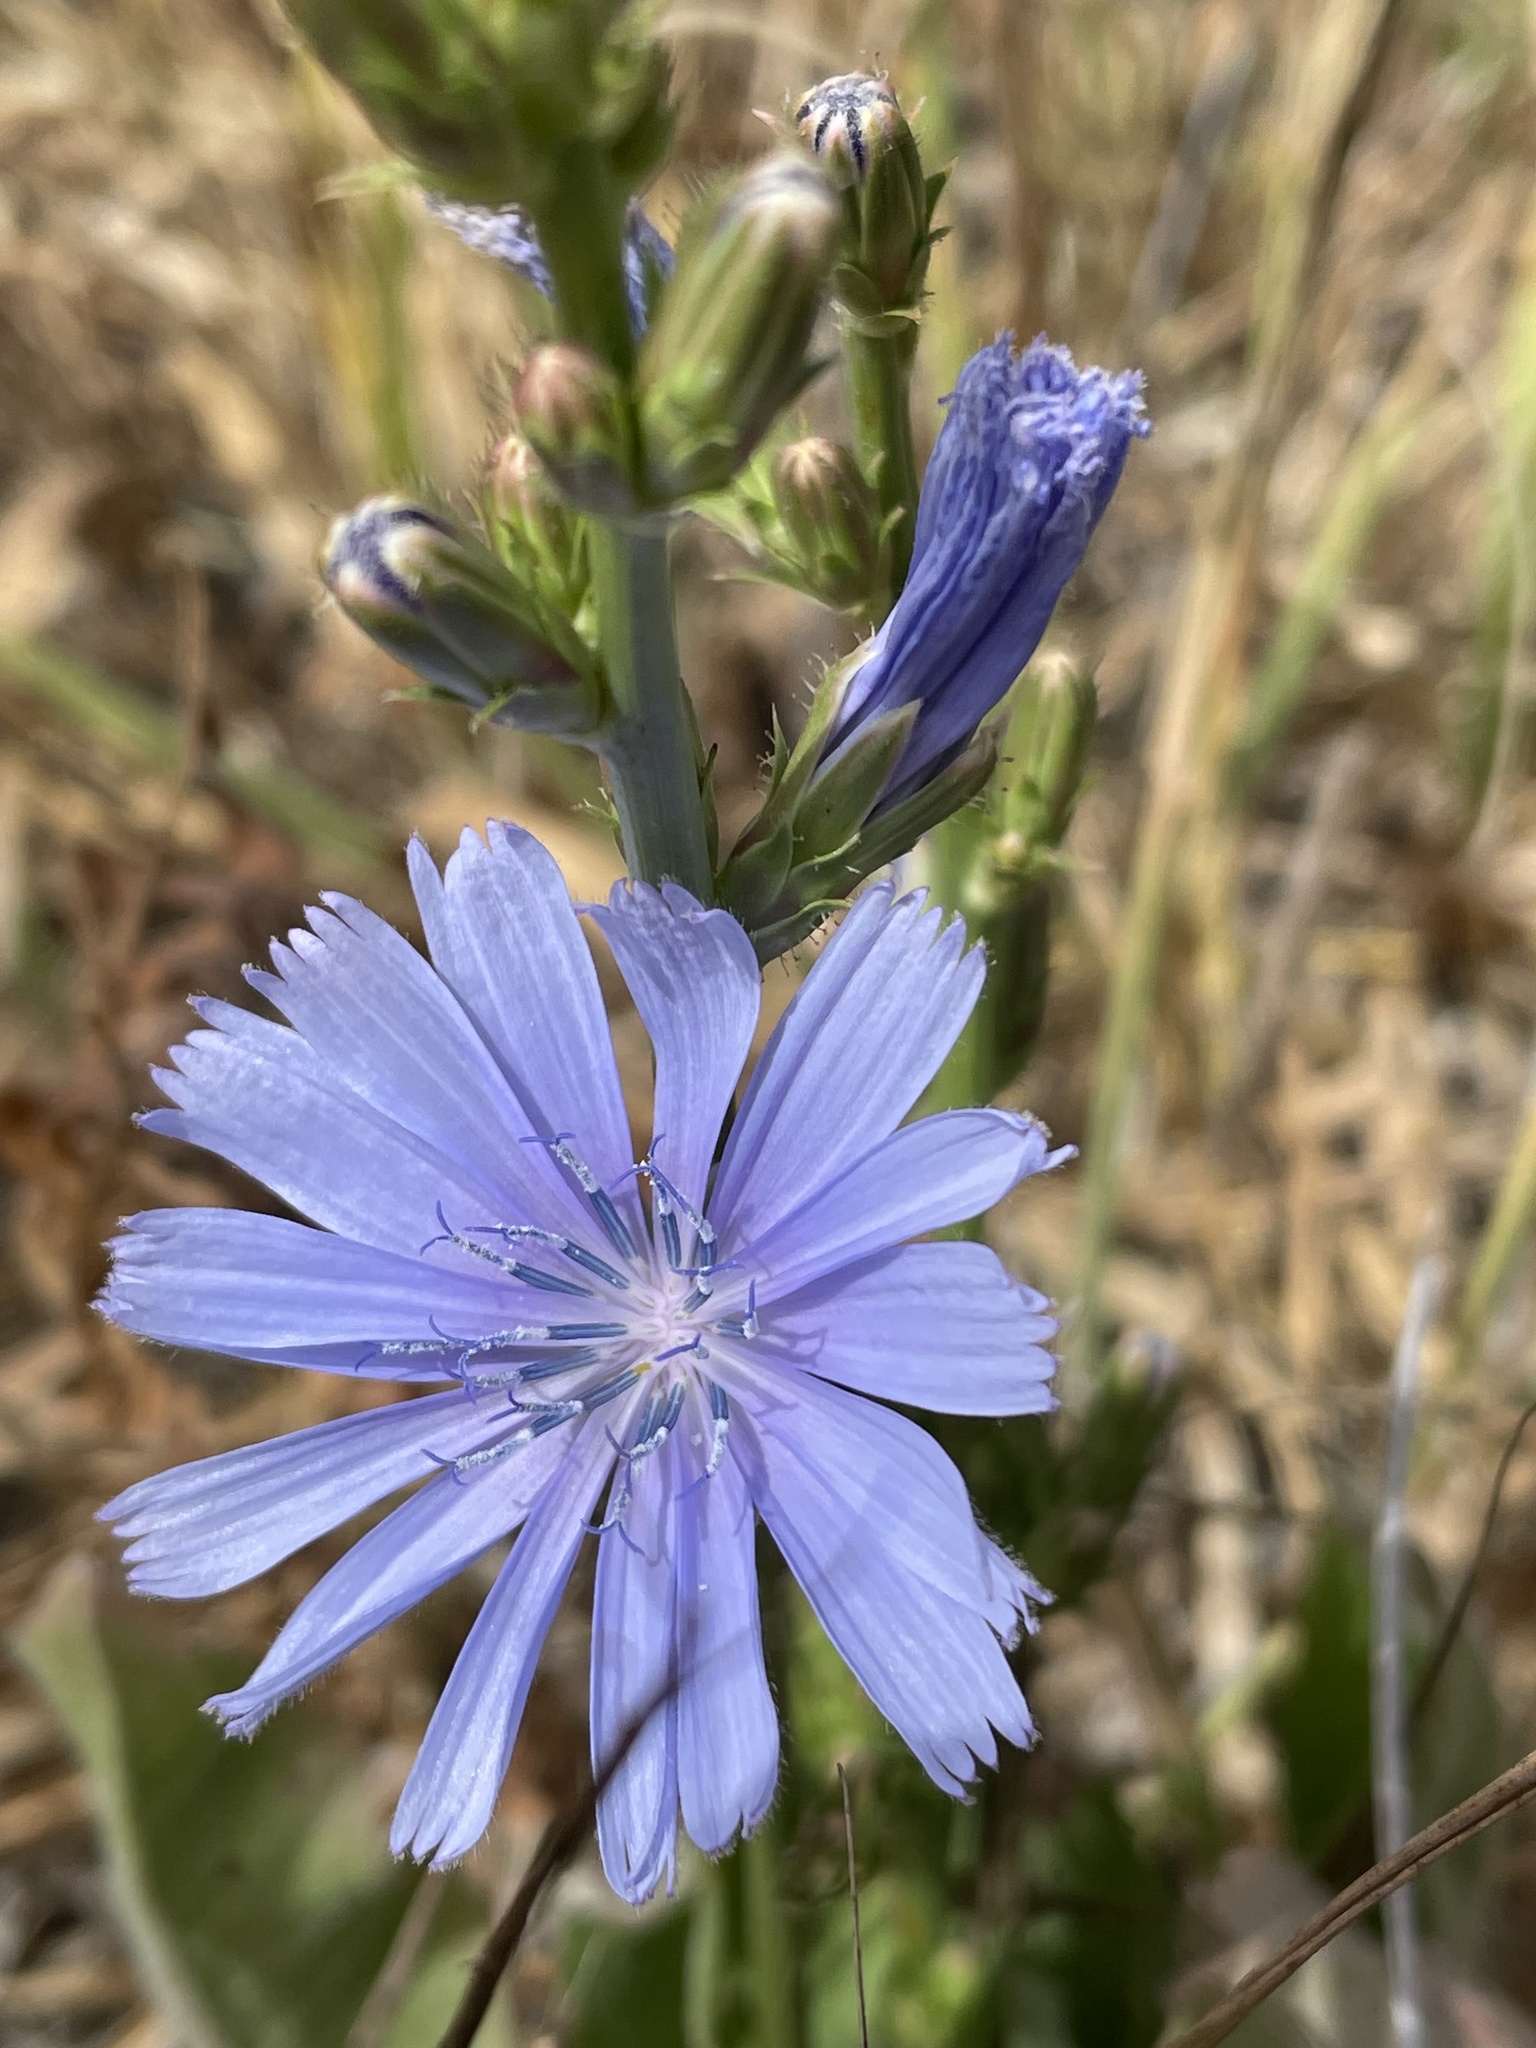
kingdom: Plantae
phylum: Tracheophyta
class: Magnoliopsida
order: Asterales
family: Asteraceae
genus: Cichorium
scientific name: Cichorium intybus
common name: Chicory
